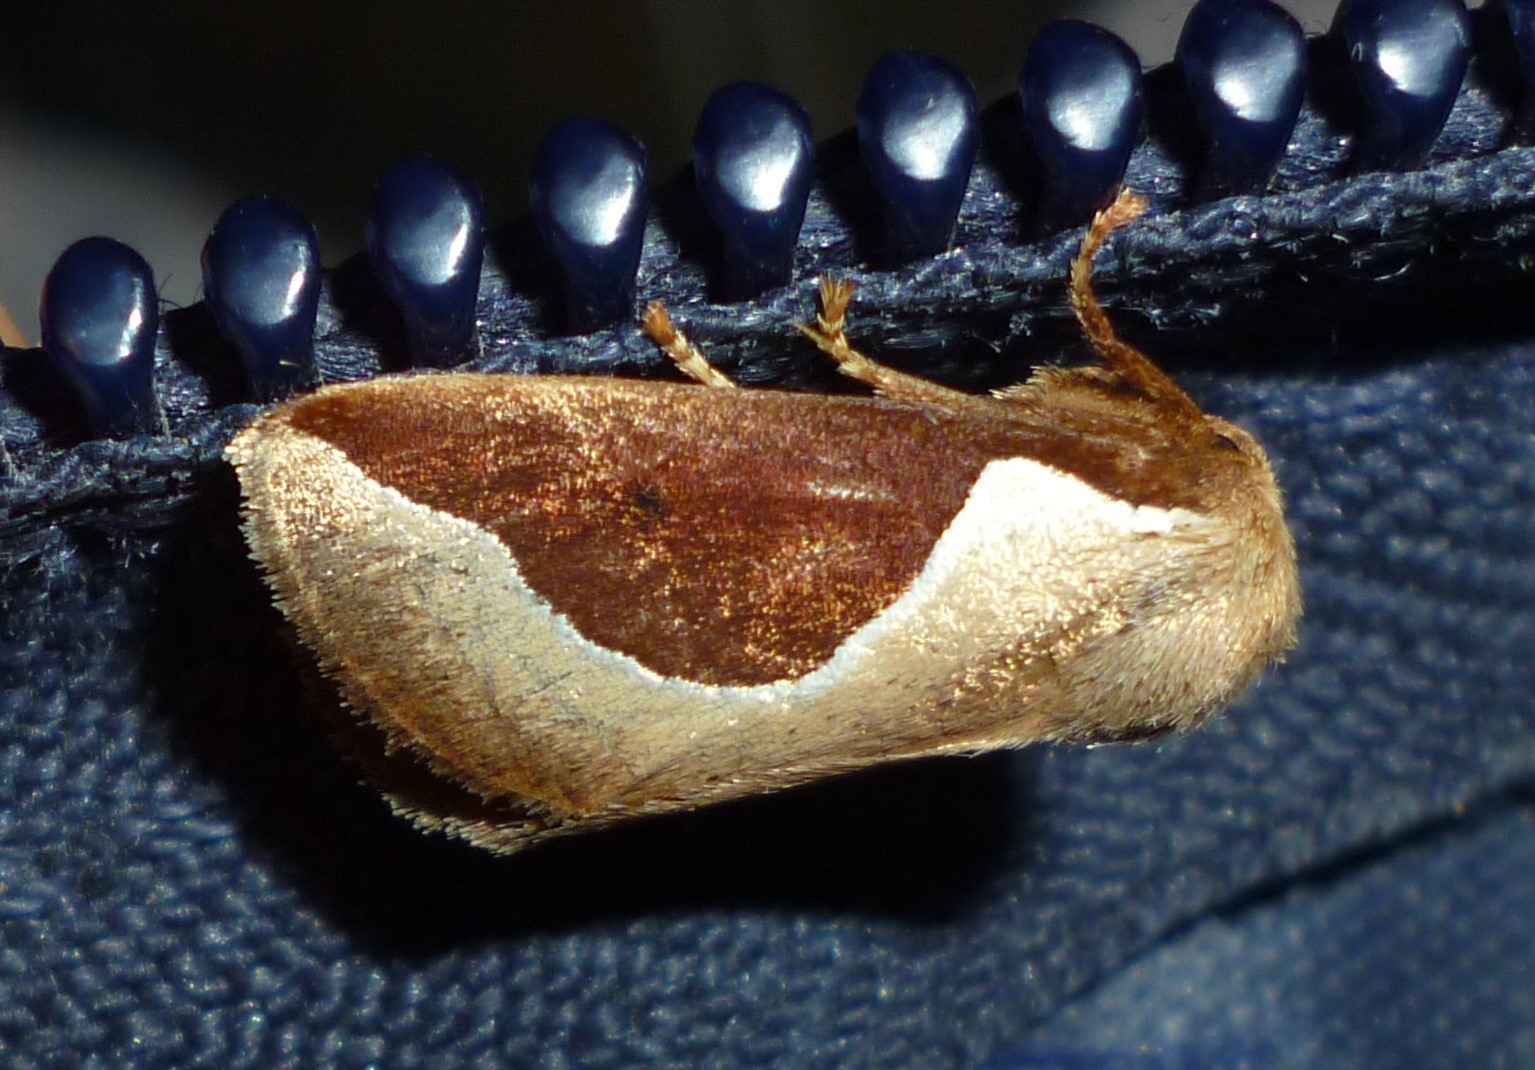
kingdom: Animalia
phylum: Arthropoda
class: Insecta
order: Lepidoptera
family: Limacodidae
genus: Prolimacodes
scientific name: Prolimacodes badia
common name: Skiff moth
